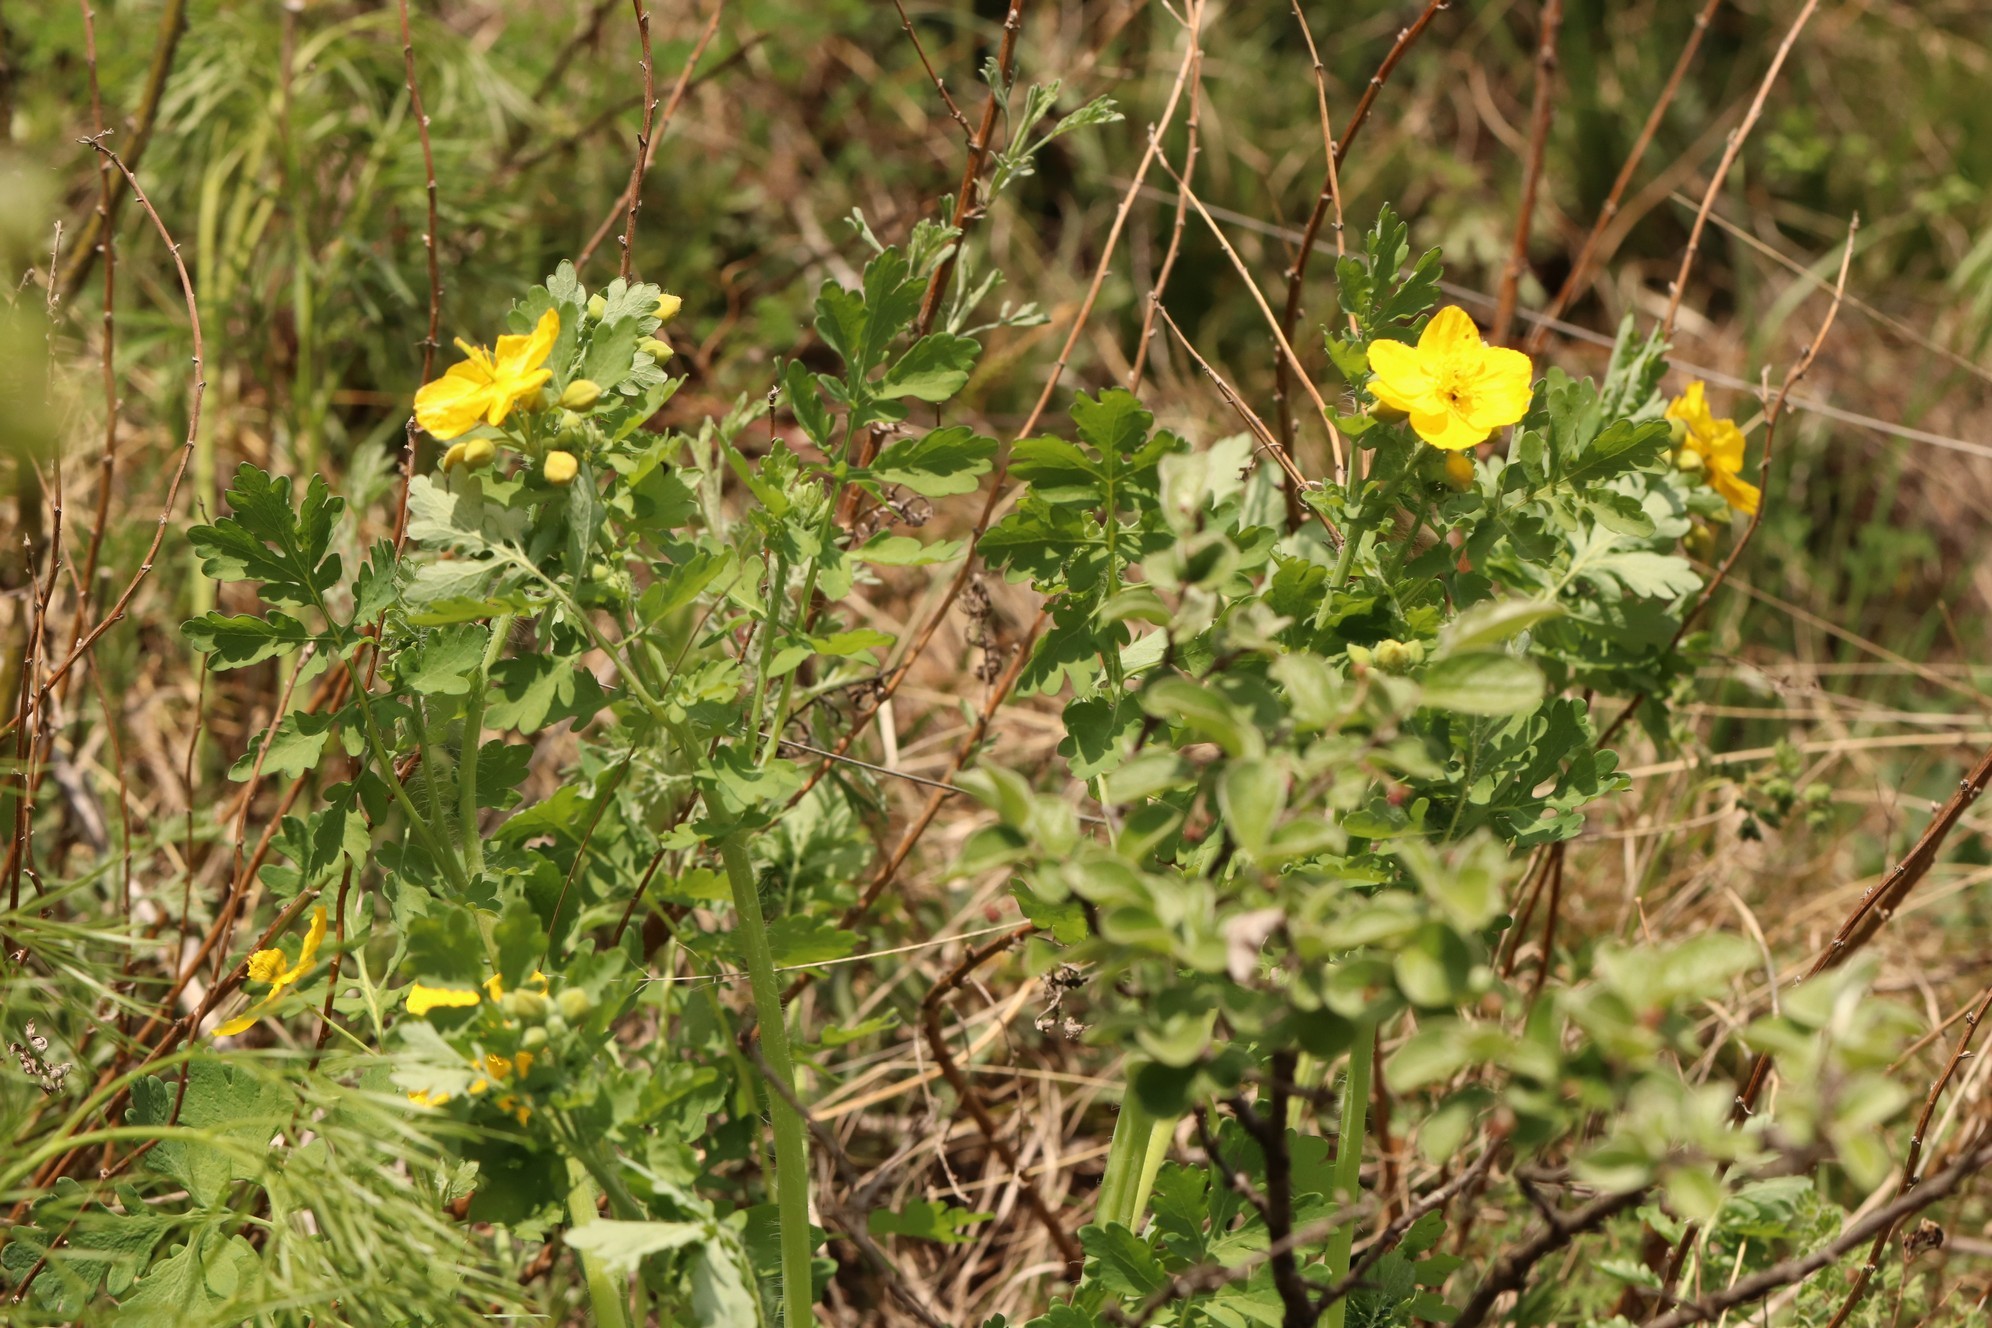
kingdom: Plantae
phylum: Tracheophyta
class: Magnoliopsida
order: Ranunculales
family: Papaveraceae
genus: Chelidonium
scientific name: Chelidonium majus
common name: Greater celandine
